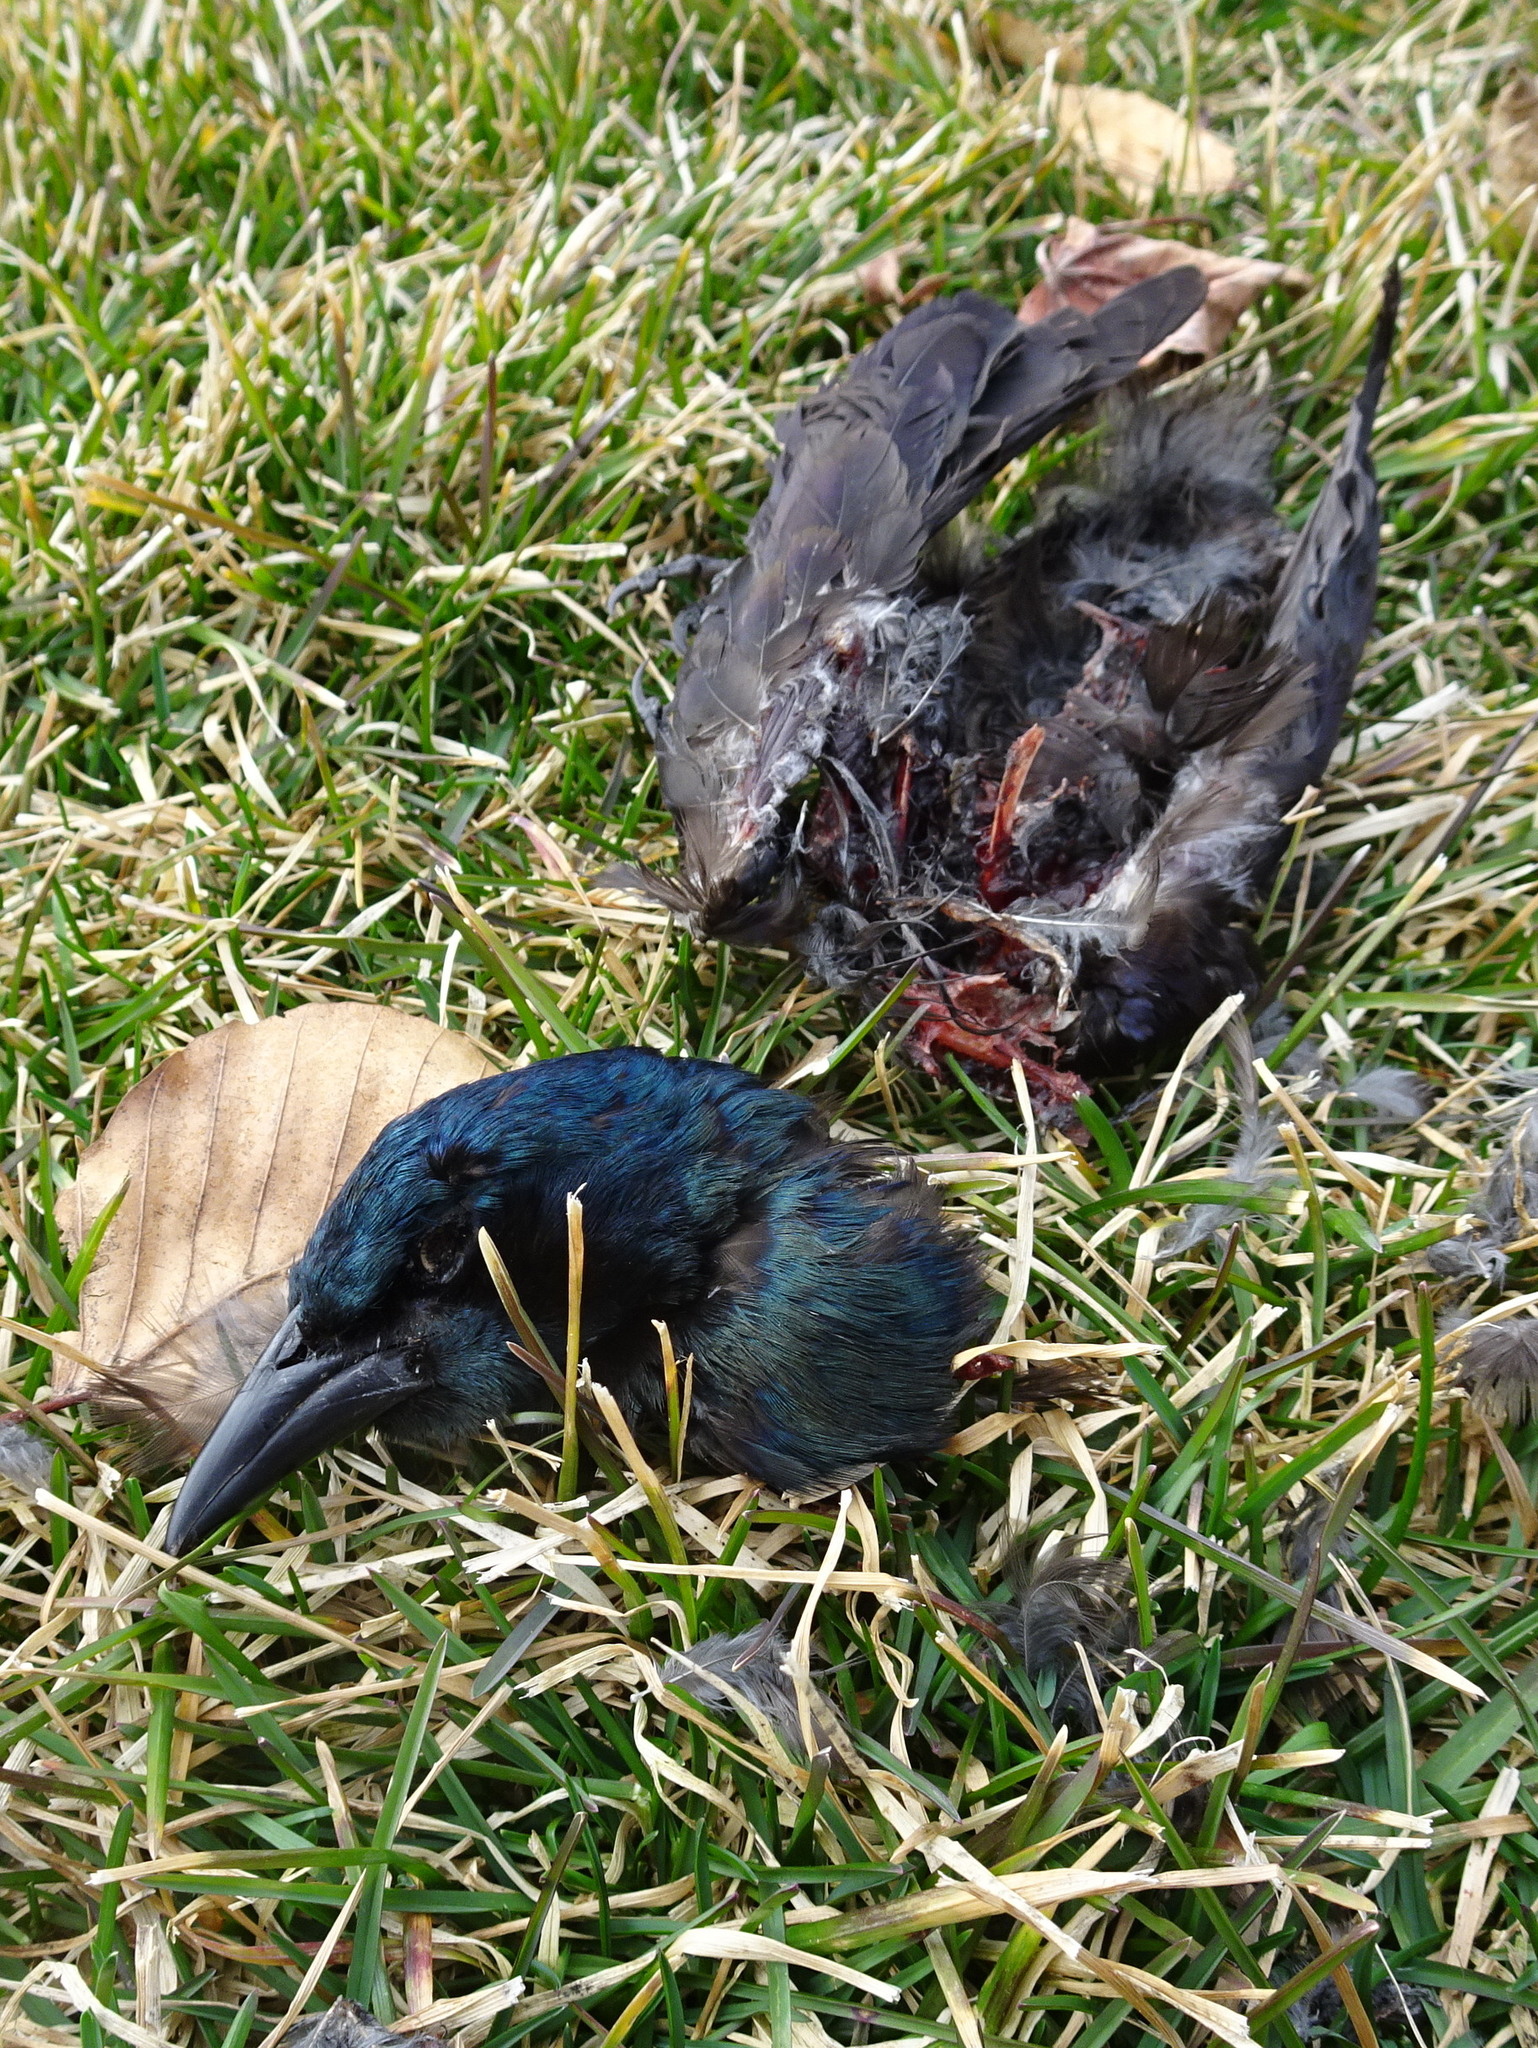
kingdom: Animalia
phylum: Chordata
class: Aves
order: Passeriformes
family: Icteridae
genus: Quiscalus
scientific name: Quiscalus quiscula
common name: Common grackle
